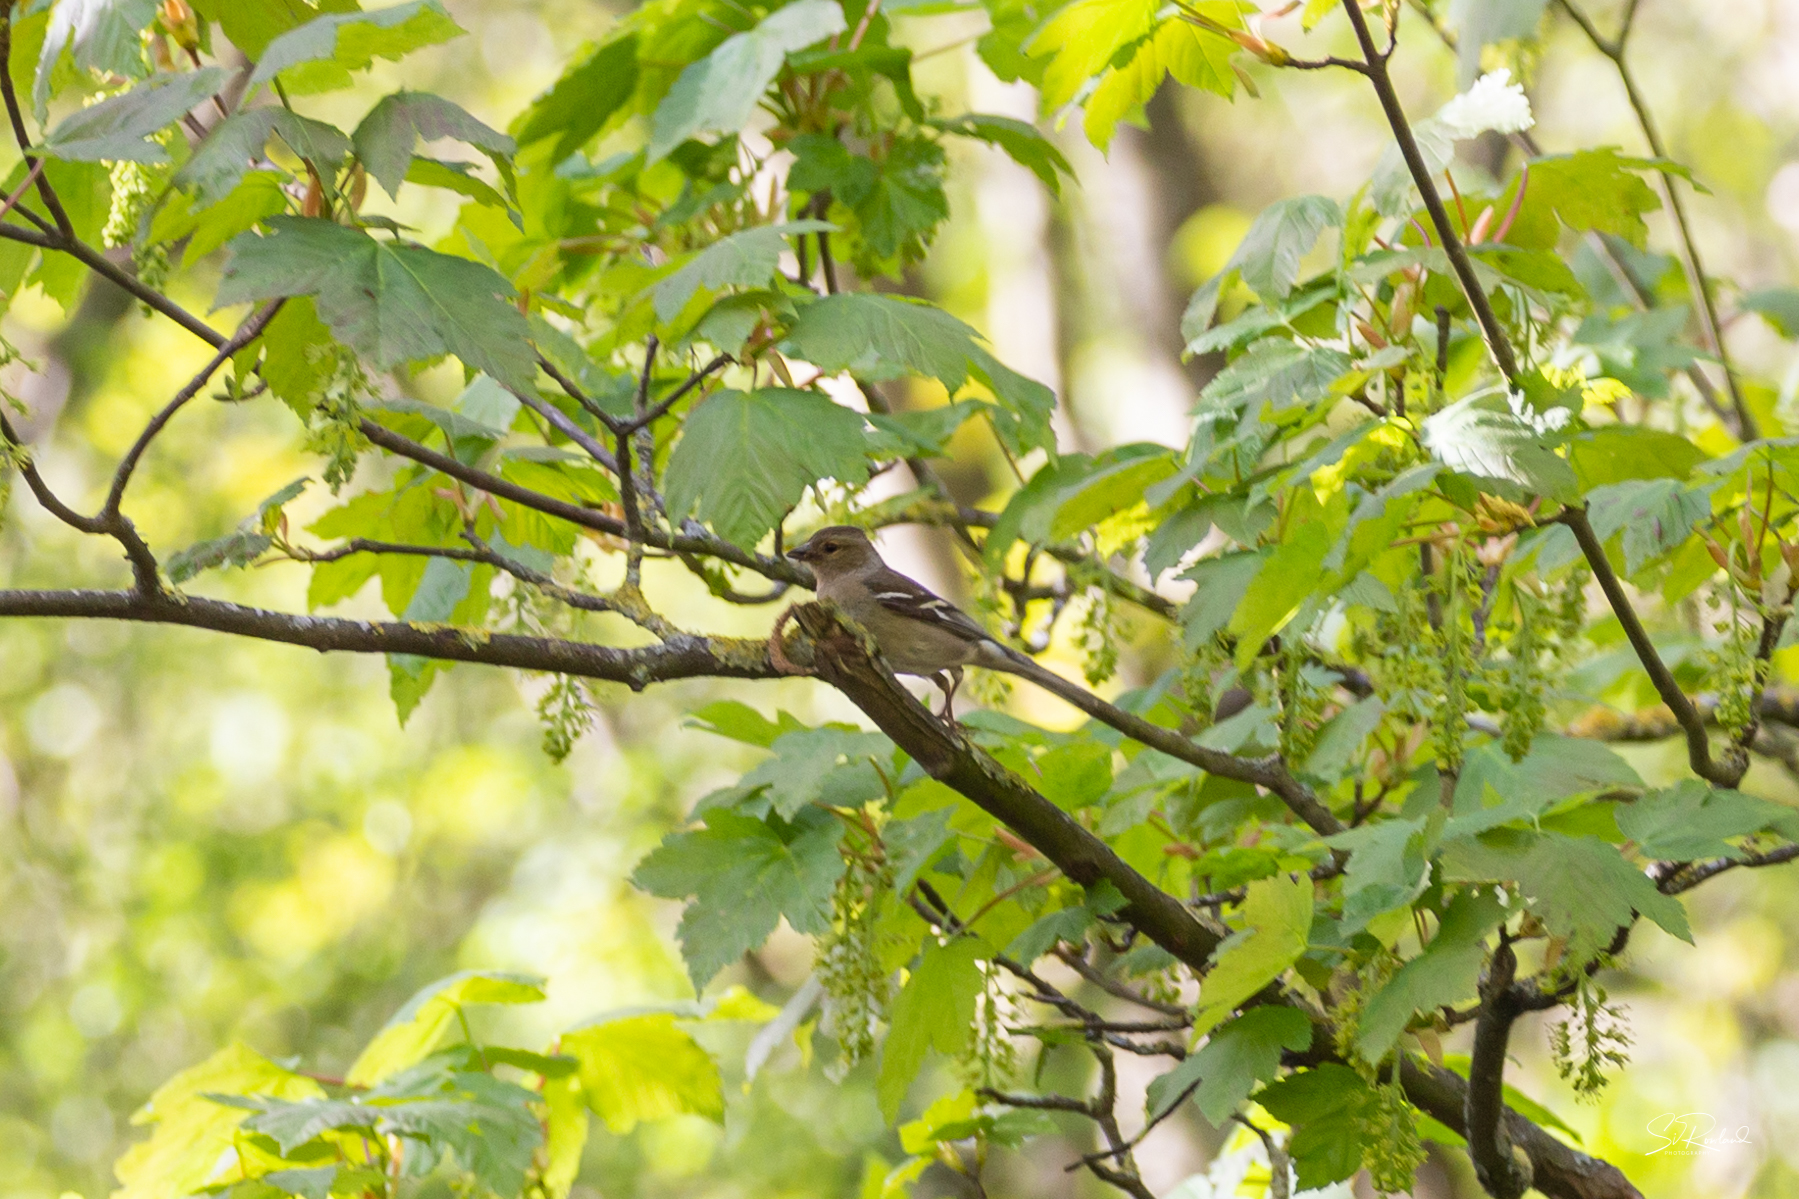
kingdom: Animalia
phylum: Chordata
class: Aves
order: Passeriformes
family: Fringillidae
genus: Fringilla
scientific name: Fringilla coelebs
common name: Common chaffinch
